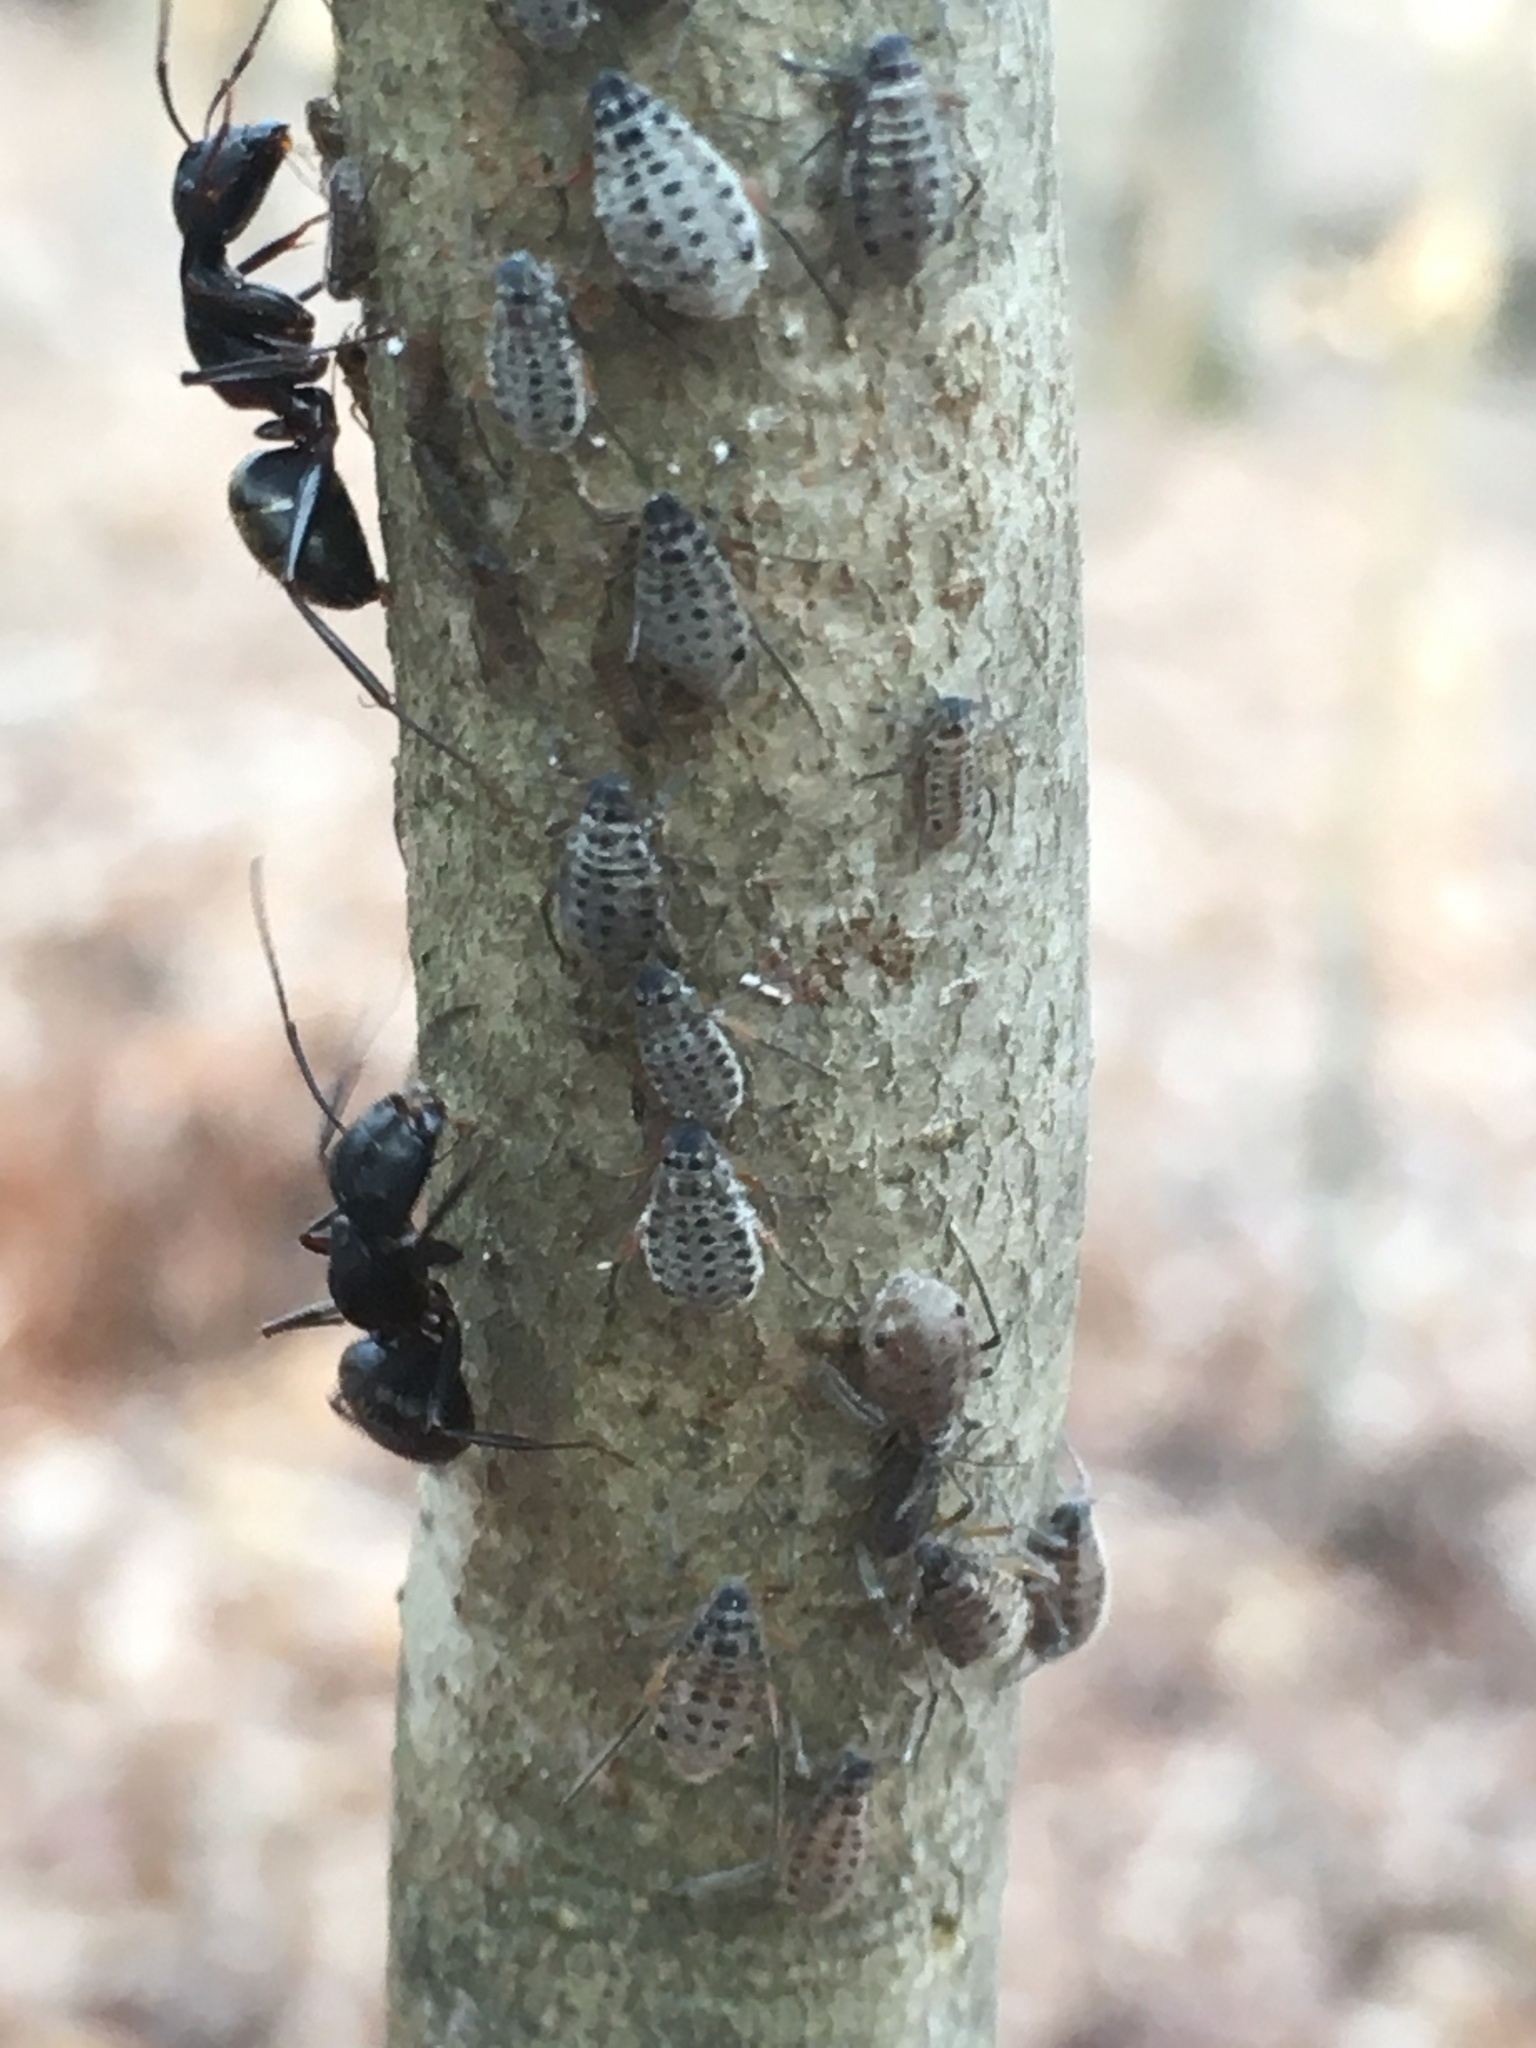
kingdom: Animalia
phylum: Arthropoda
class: Insecta
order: Hymenoptera
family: Formicidae
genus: Camponotus
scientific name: Camponotus pennsylvanicus
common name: Black carpenter ant
